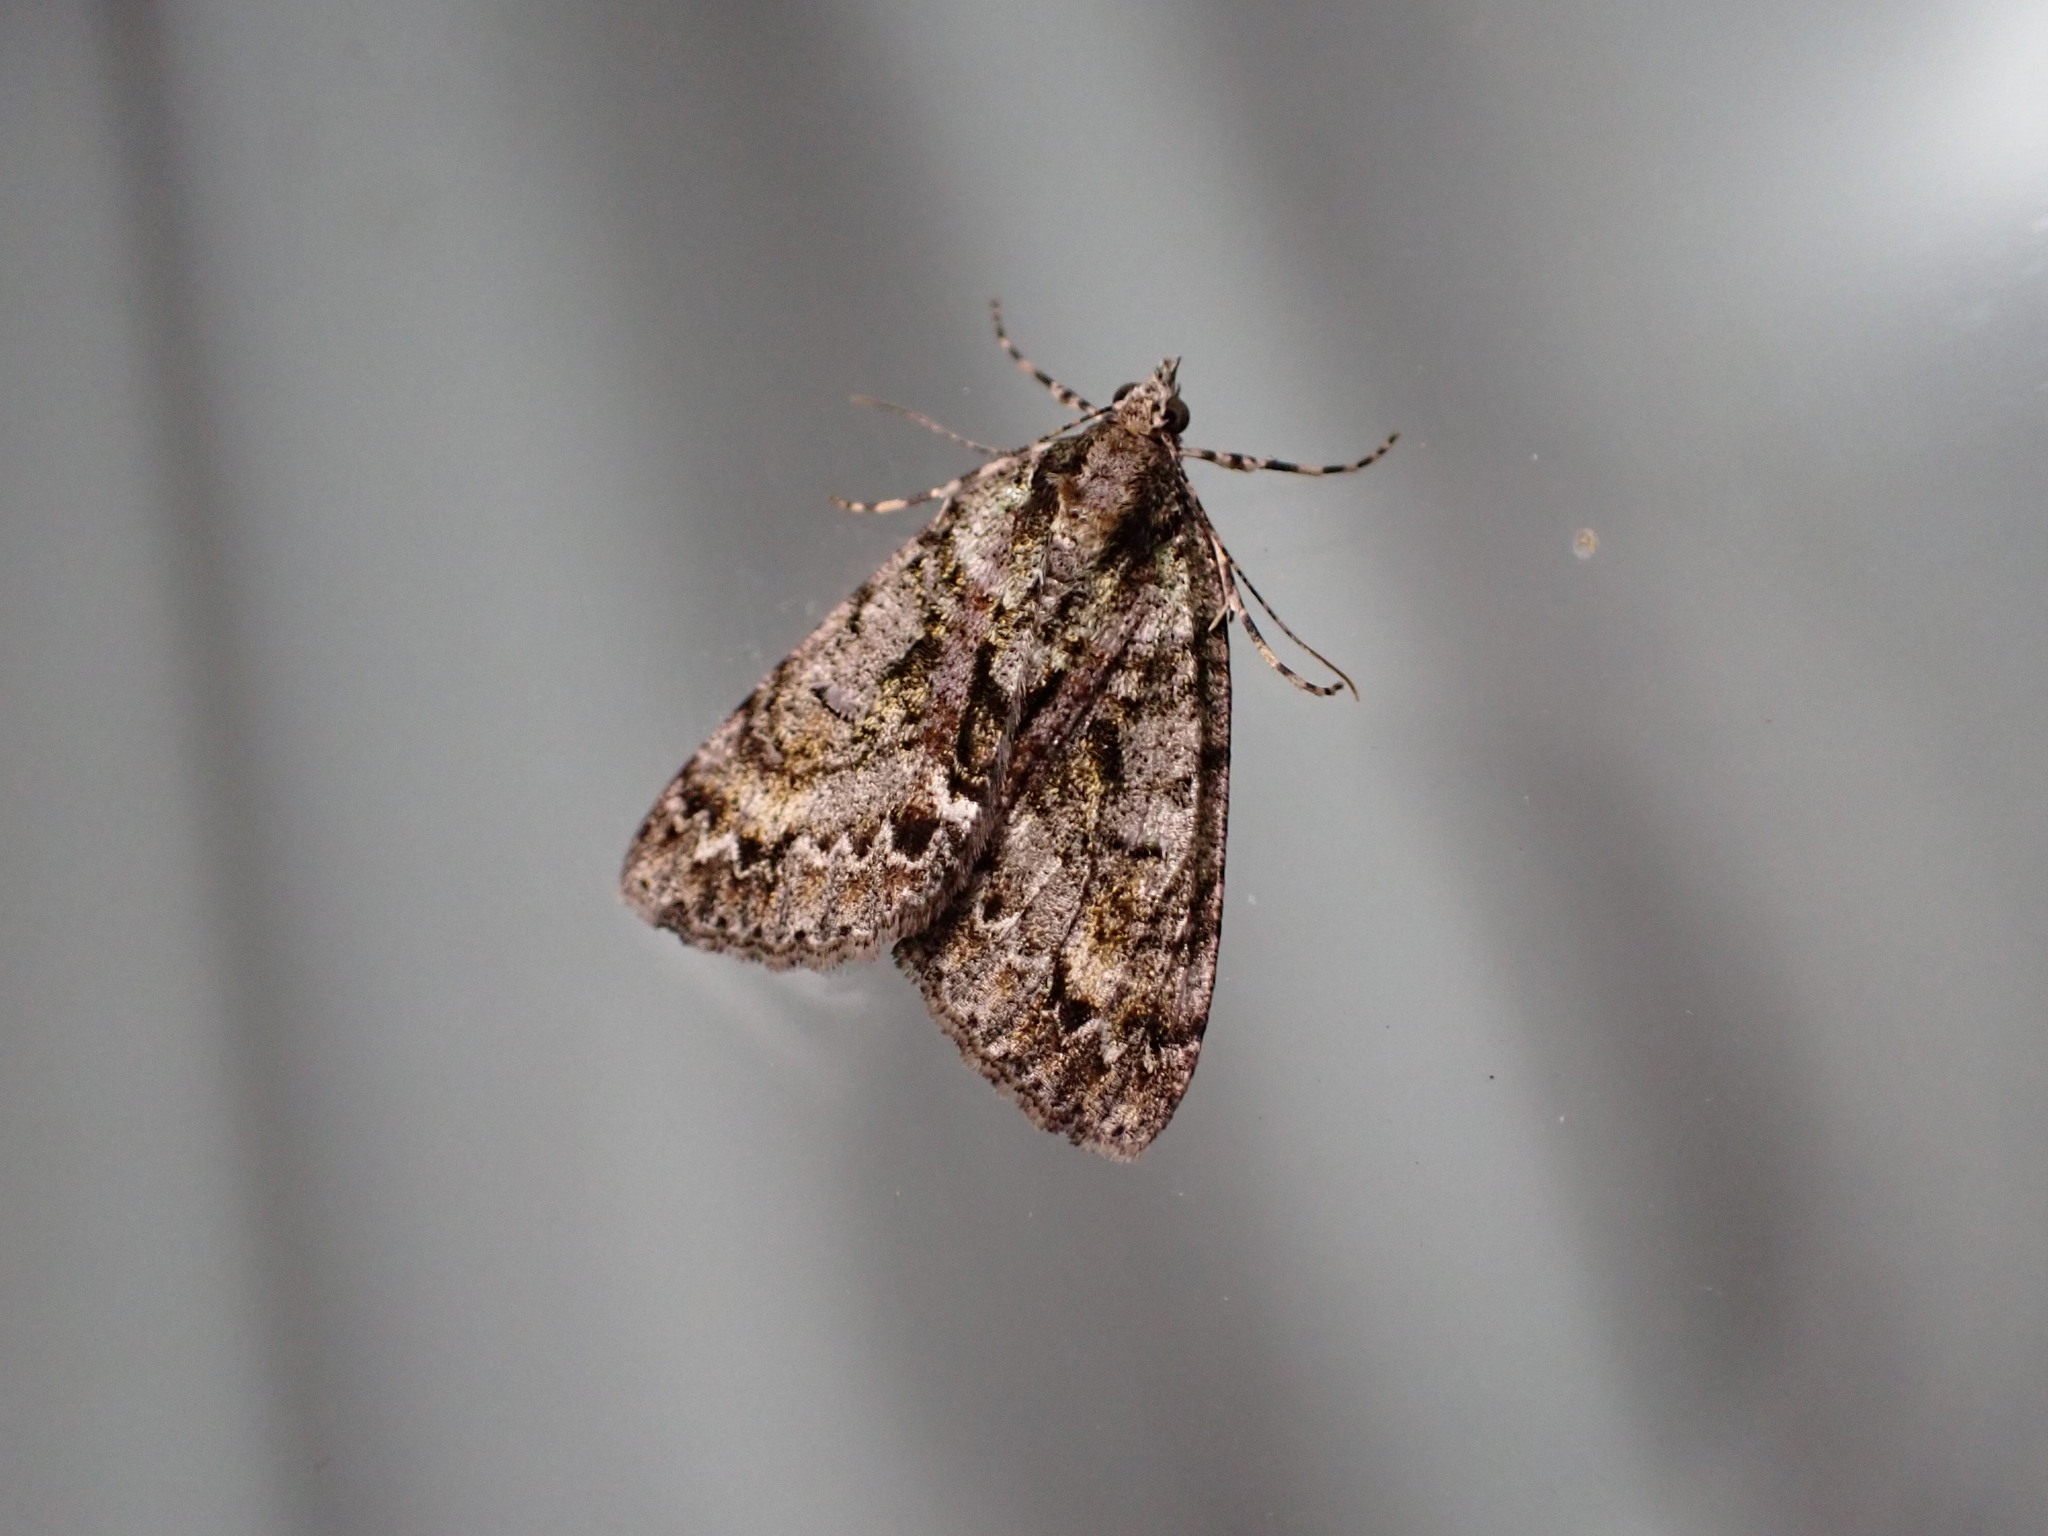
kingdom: Animalia
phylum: Arthropoda
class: Insecta
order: Lepidoptera
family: Geometridae
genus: Pseudocoremia
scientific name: Pseudocoremia suavis
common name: Common forest looper
